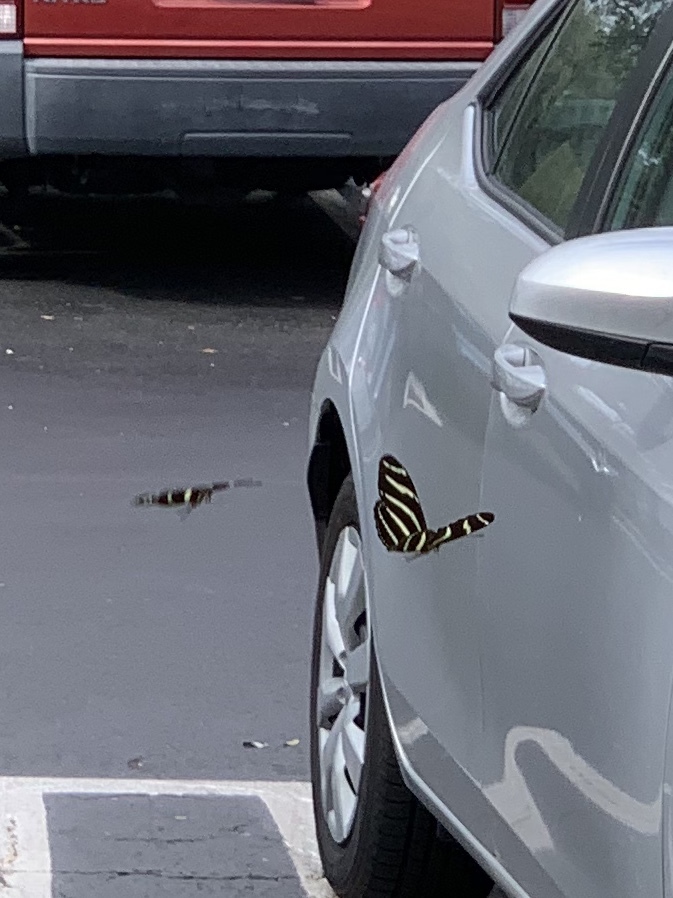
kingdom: Animalia
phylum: Arthropoda
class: Insecta
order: Lepidoptera
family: Nymphalidae
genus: Heliconius
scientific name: Heliconius charithonia
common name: Zebra long wing
